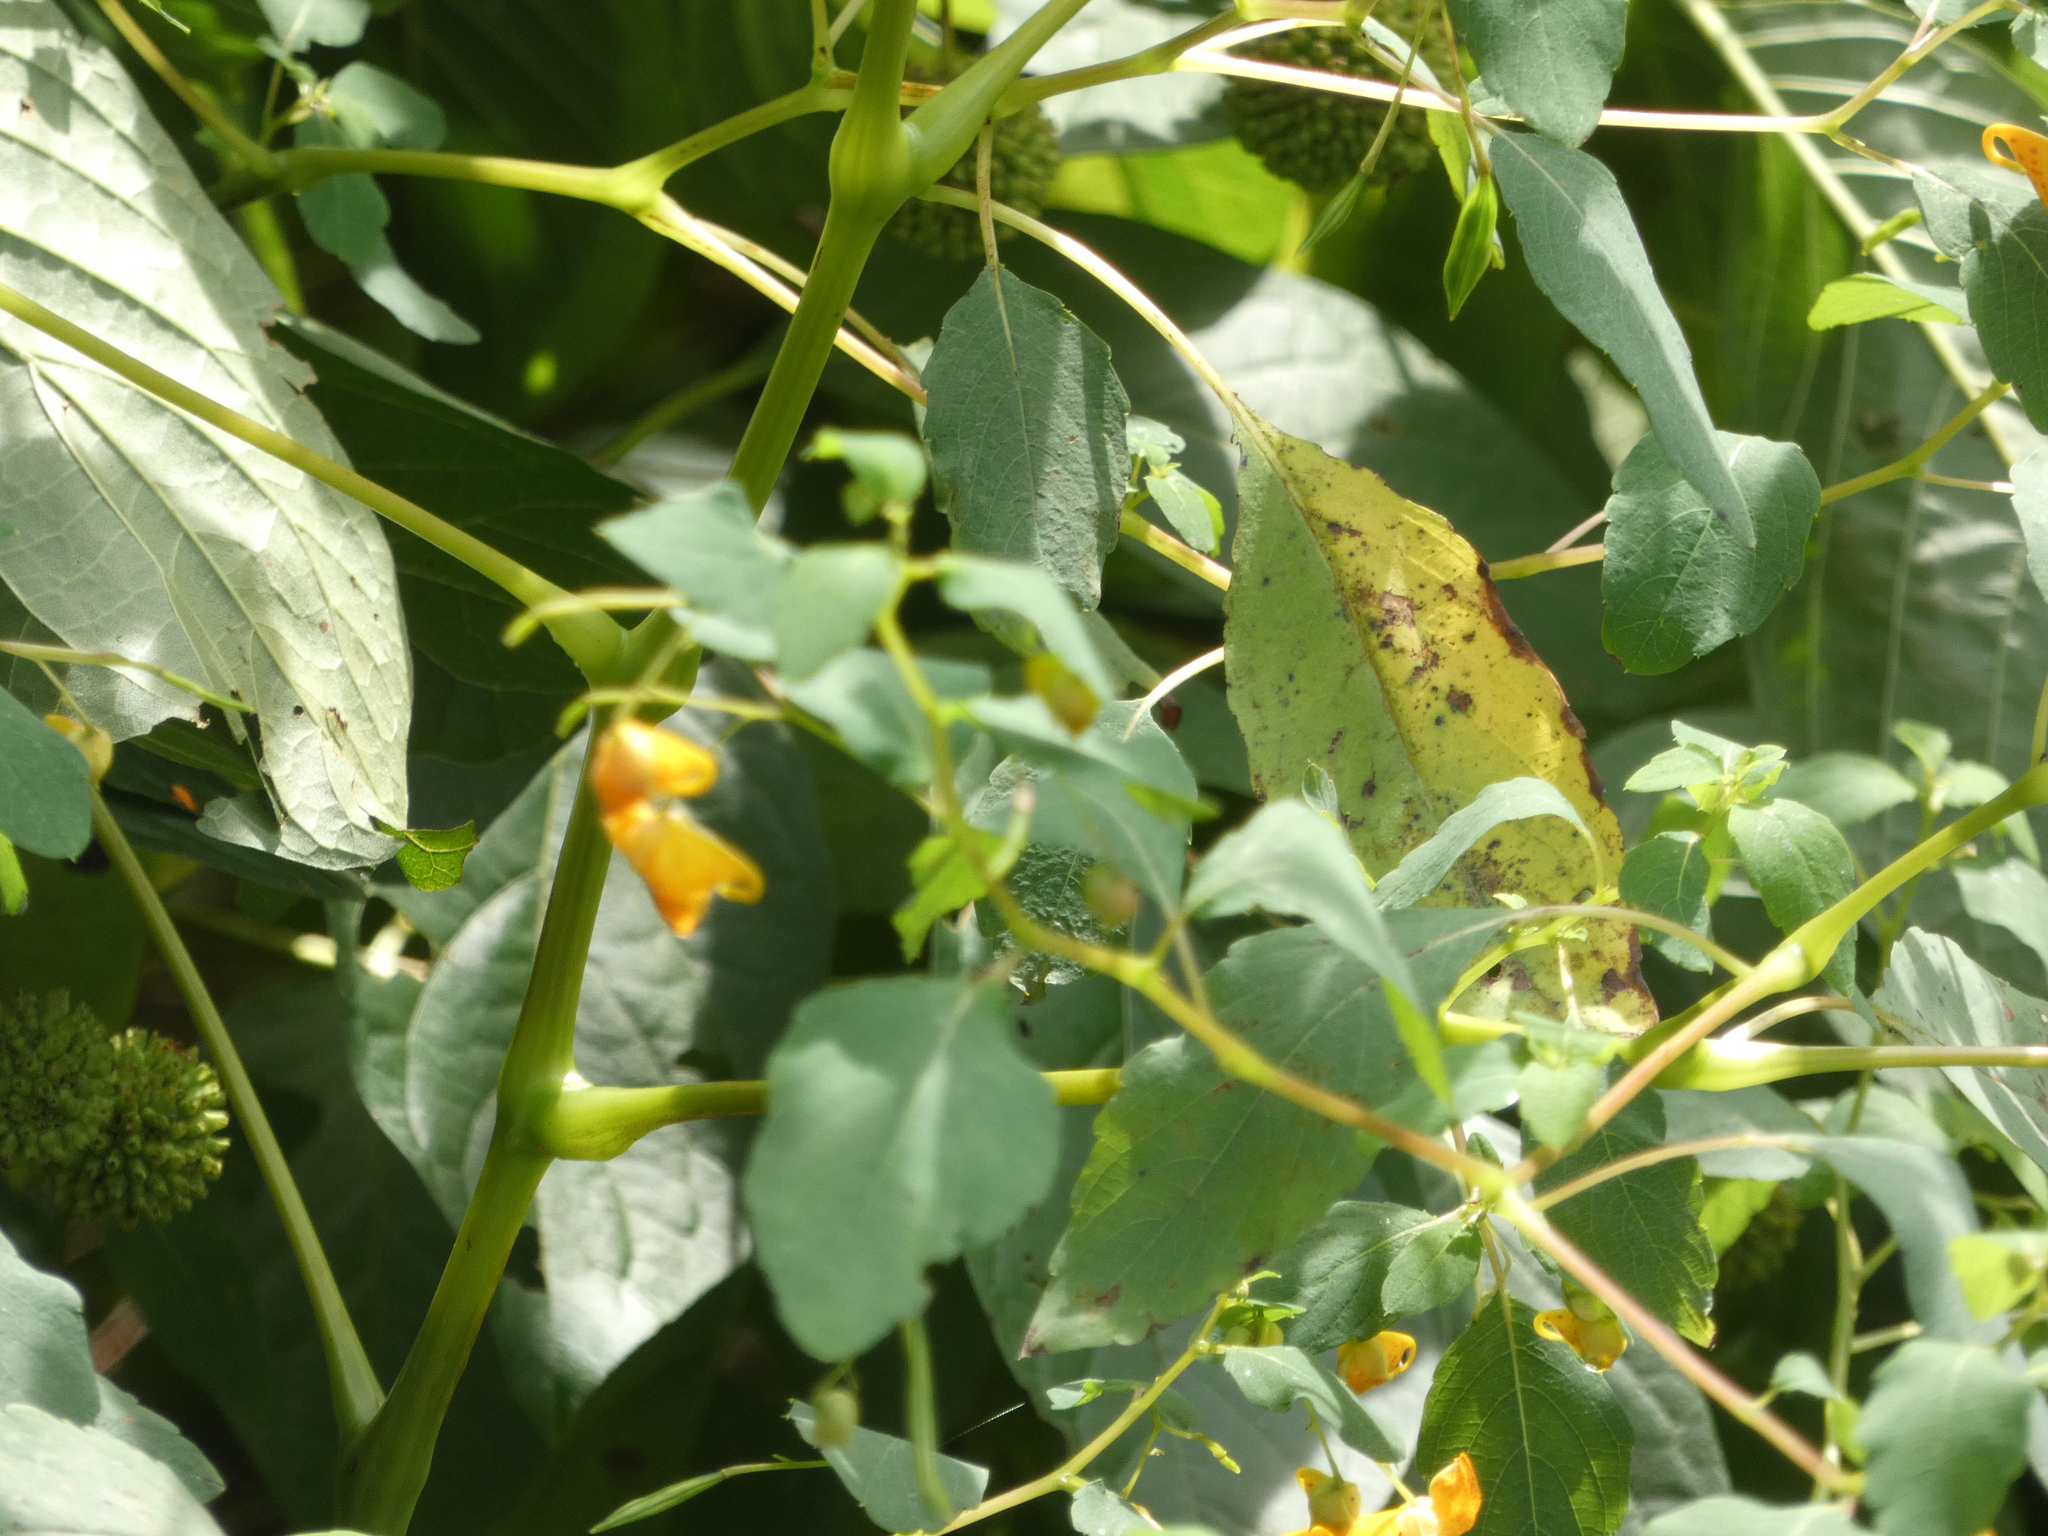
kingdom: Plantae
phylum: Tracheophyta
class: Magnoliopsida
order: Ericales
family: Balsaminaceae
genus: Impatiens
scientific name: Impatiens capensis
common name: Orange balsam
